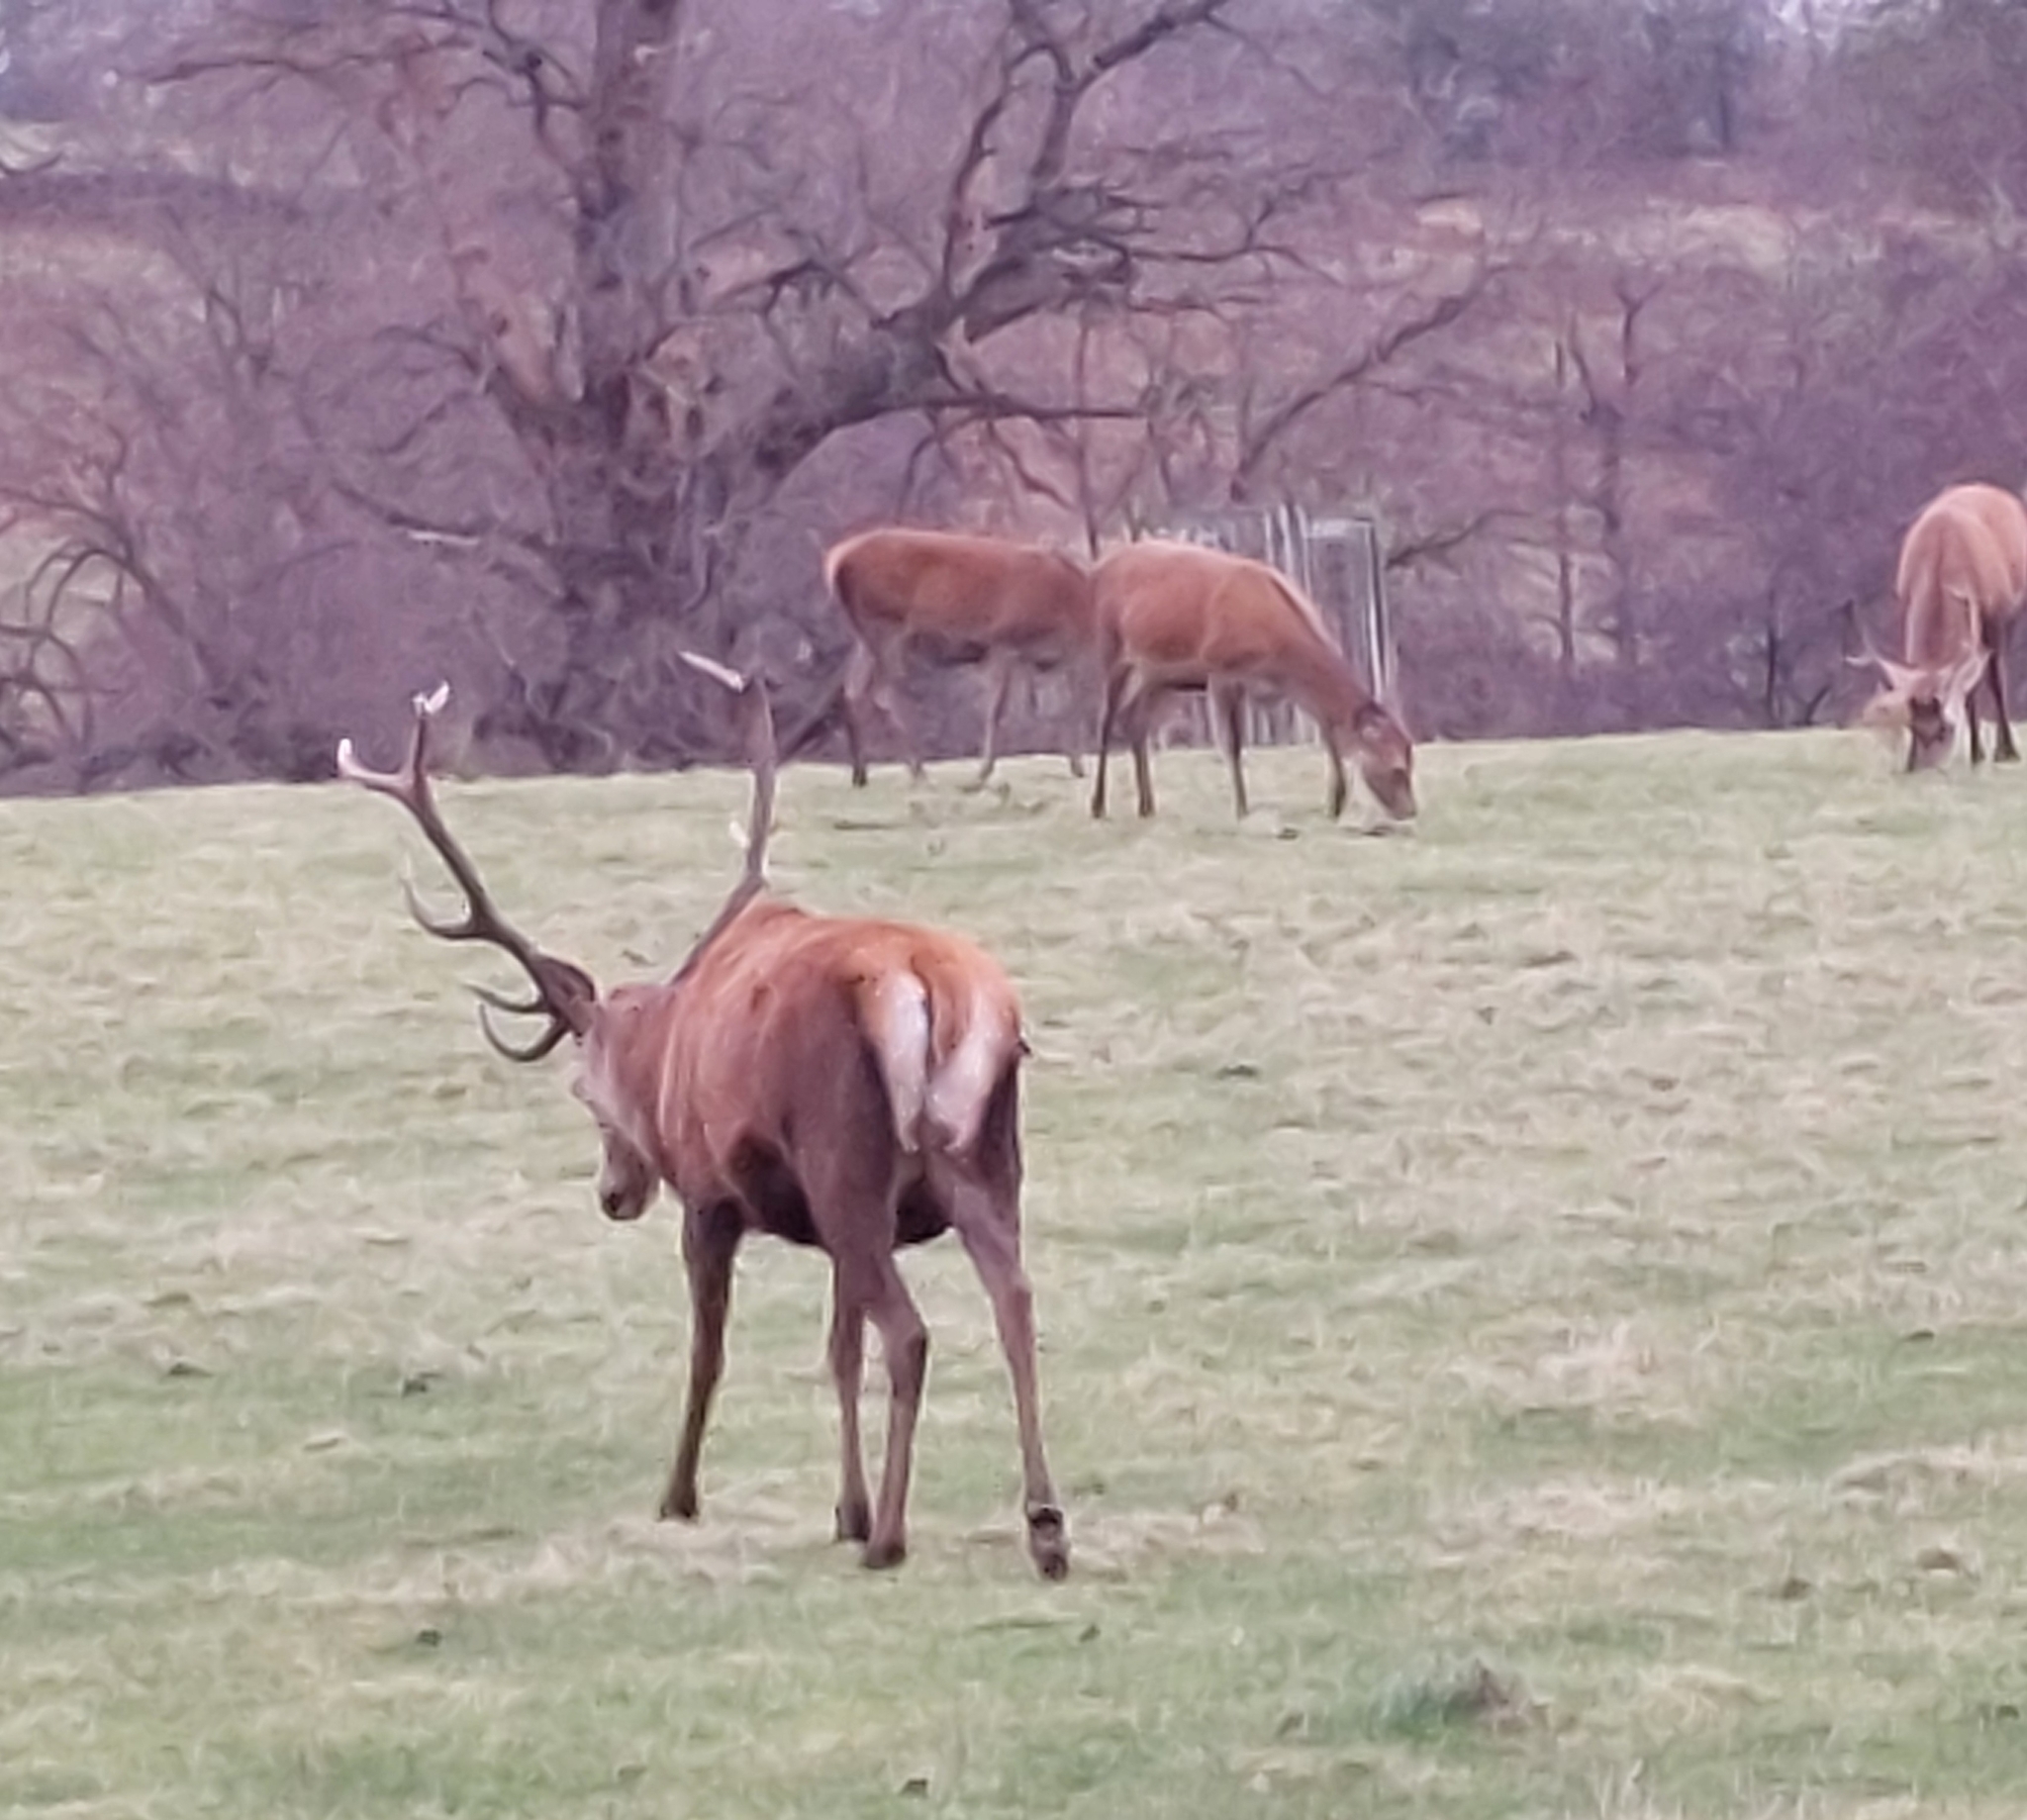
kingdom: Animalia
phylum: Chordata
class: Mammalia
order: Artiodactyla
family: Cervidae
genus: Cervus
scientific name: Cervus elaphus
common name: Red deer
